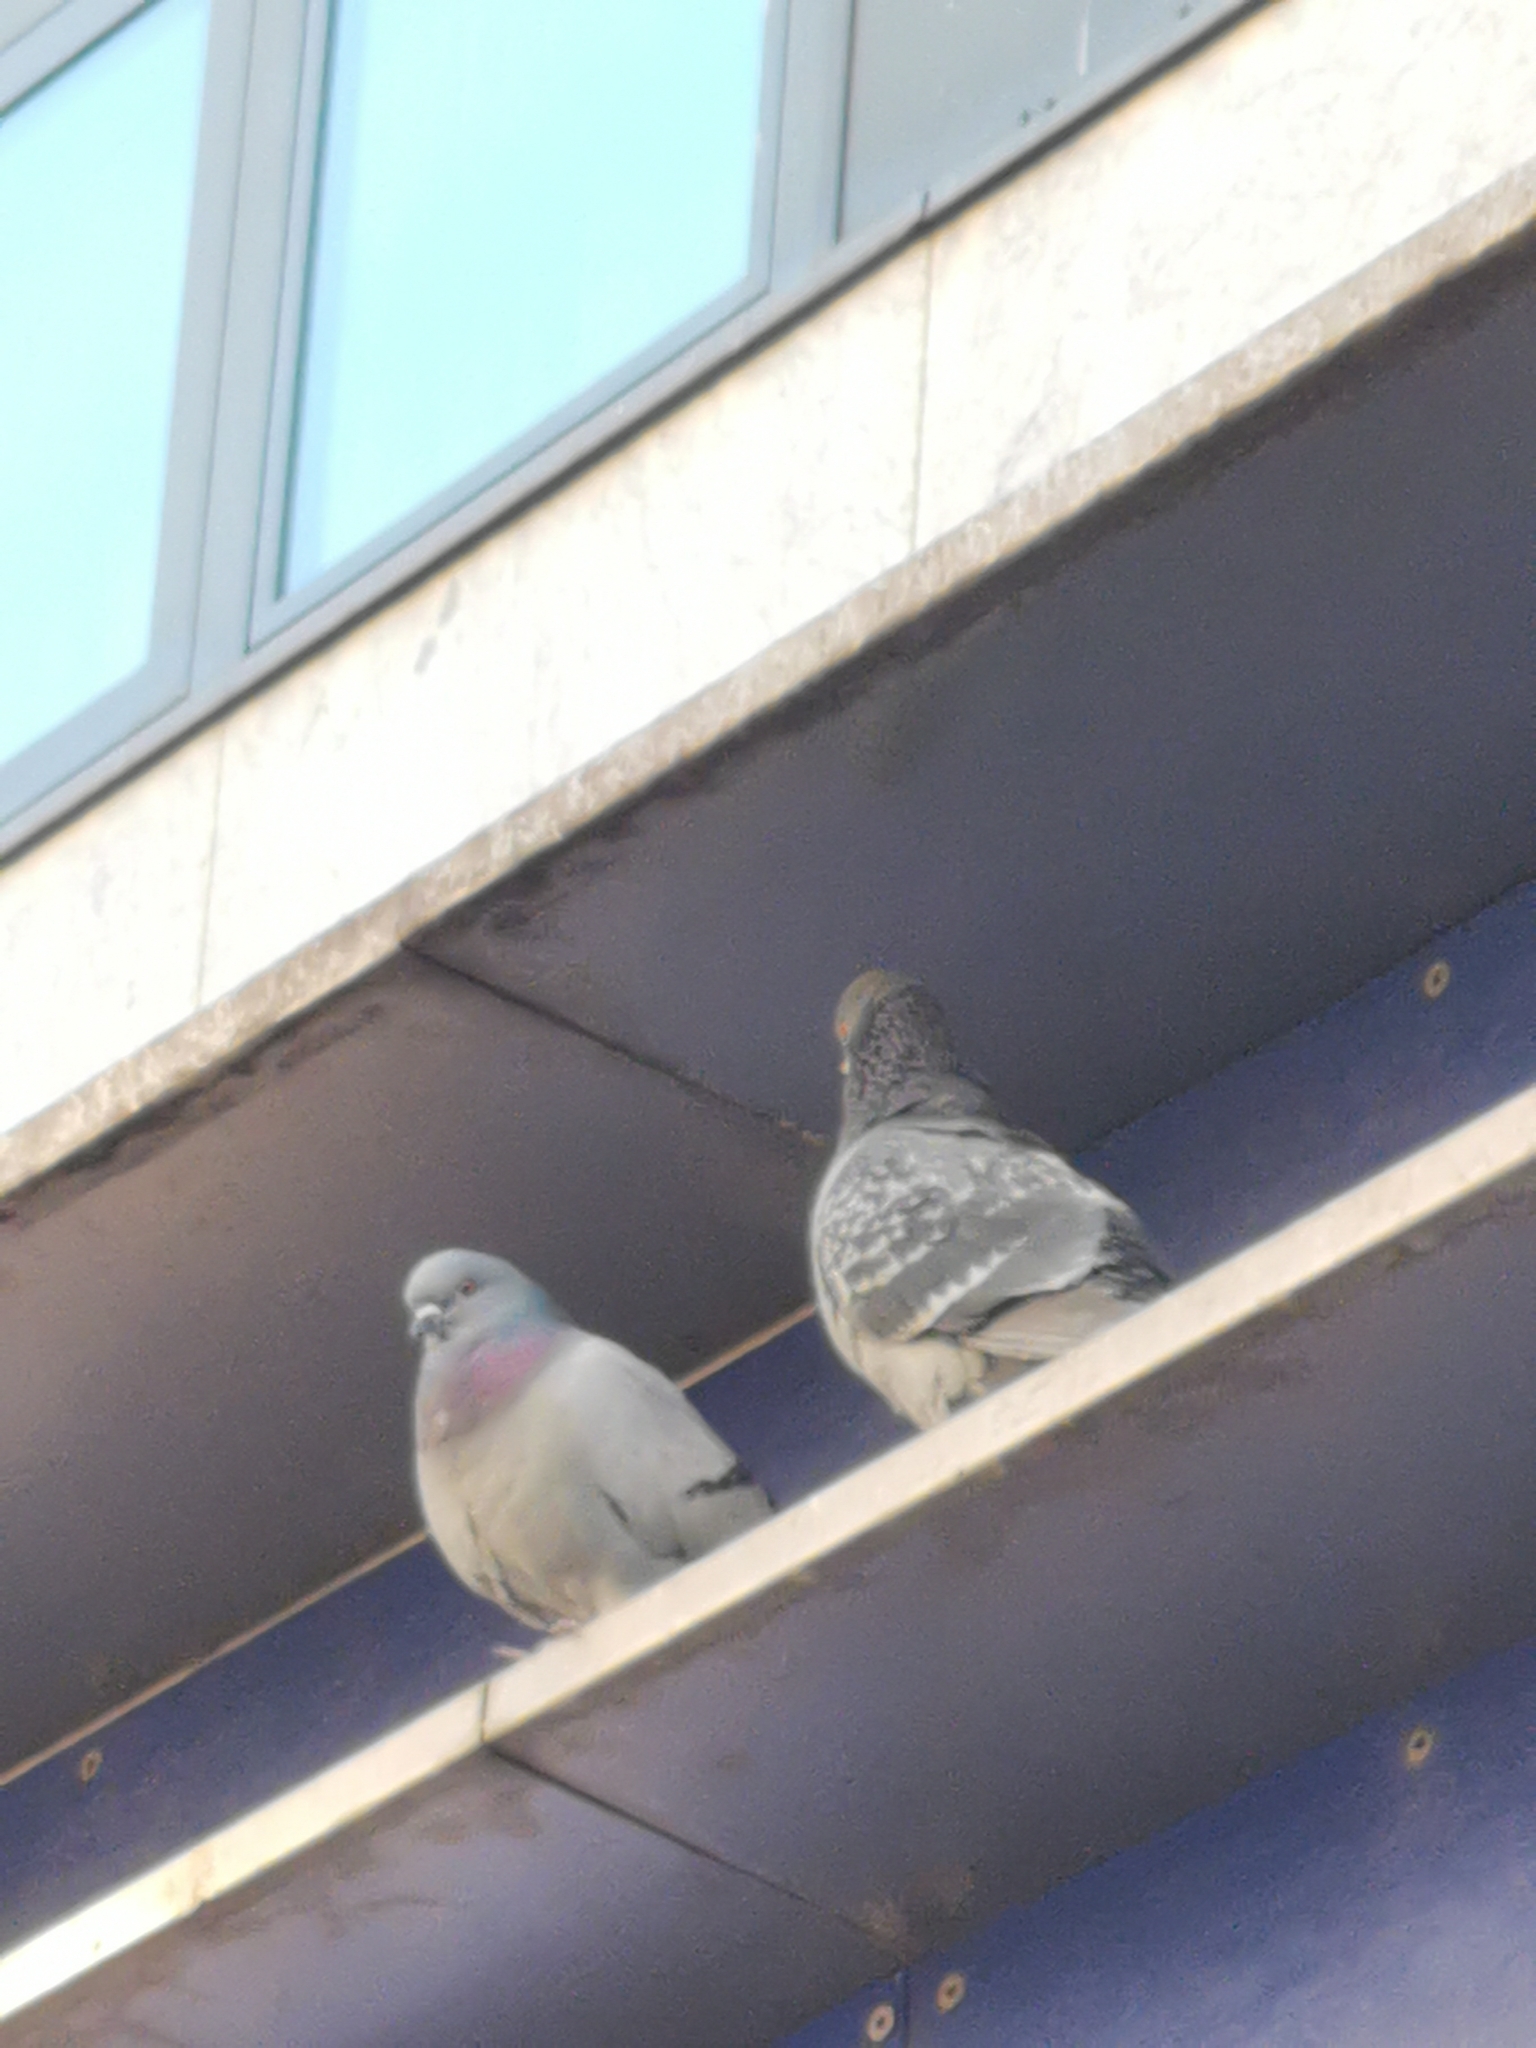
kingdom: Animalia
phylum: Chordata
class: Aves
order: Columbiformes
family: Columbidae
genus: Columba
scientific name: Columba livia
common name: Rock pigeon
